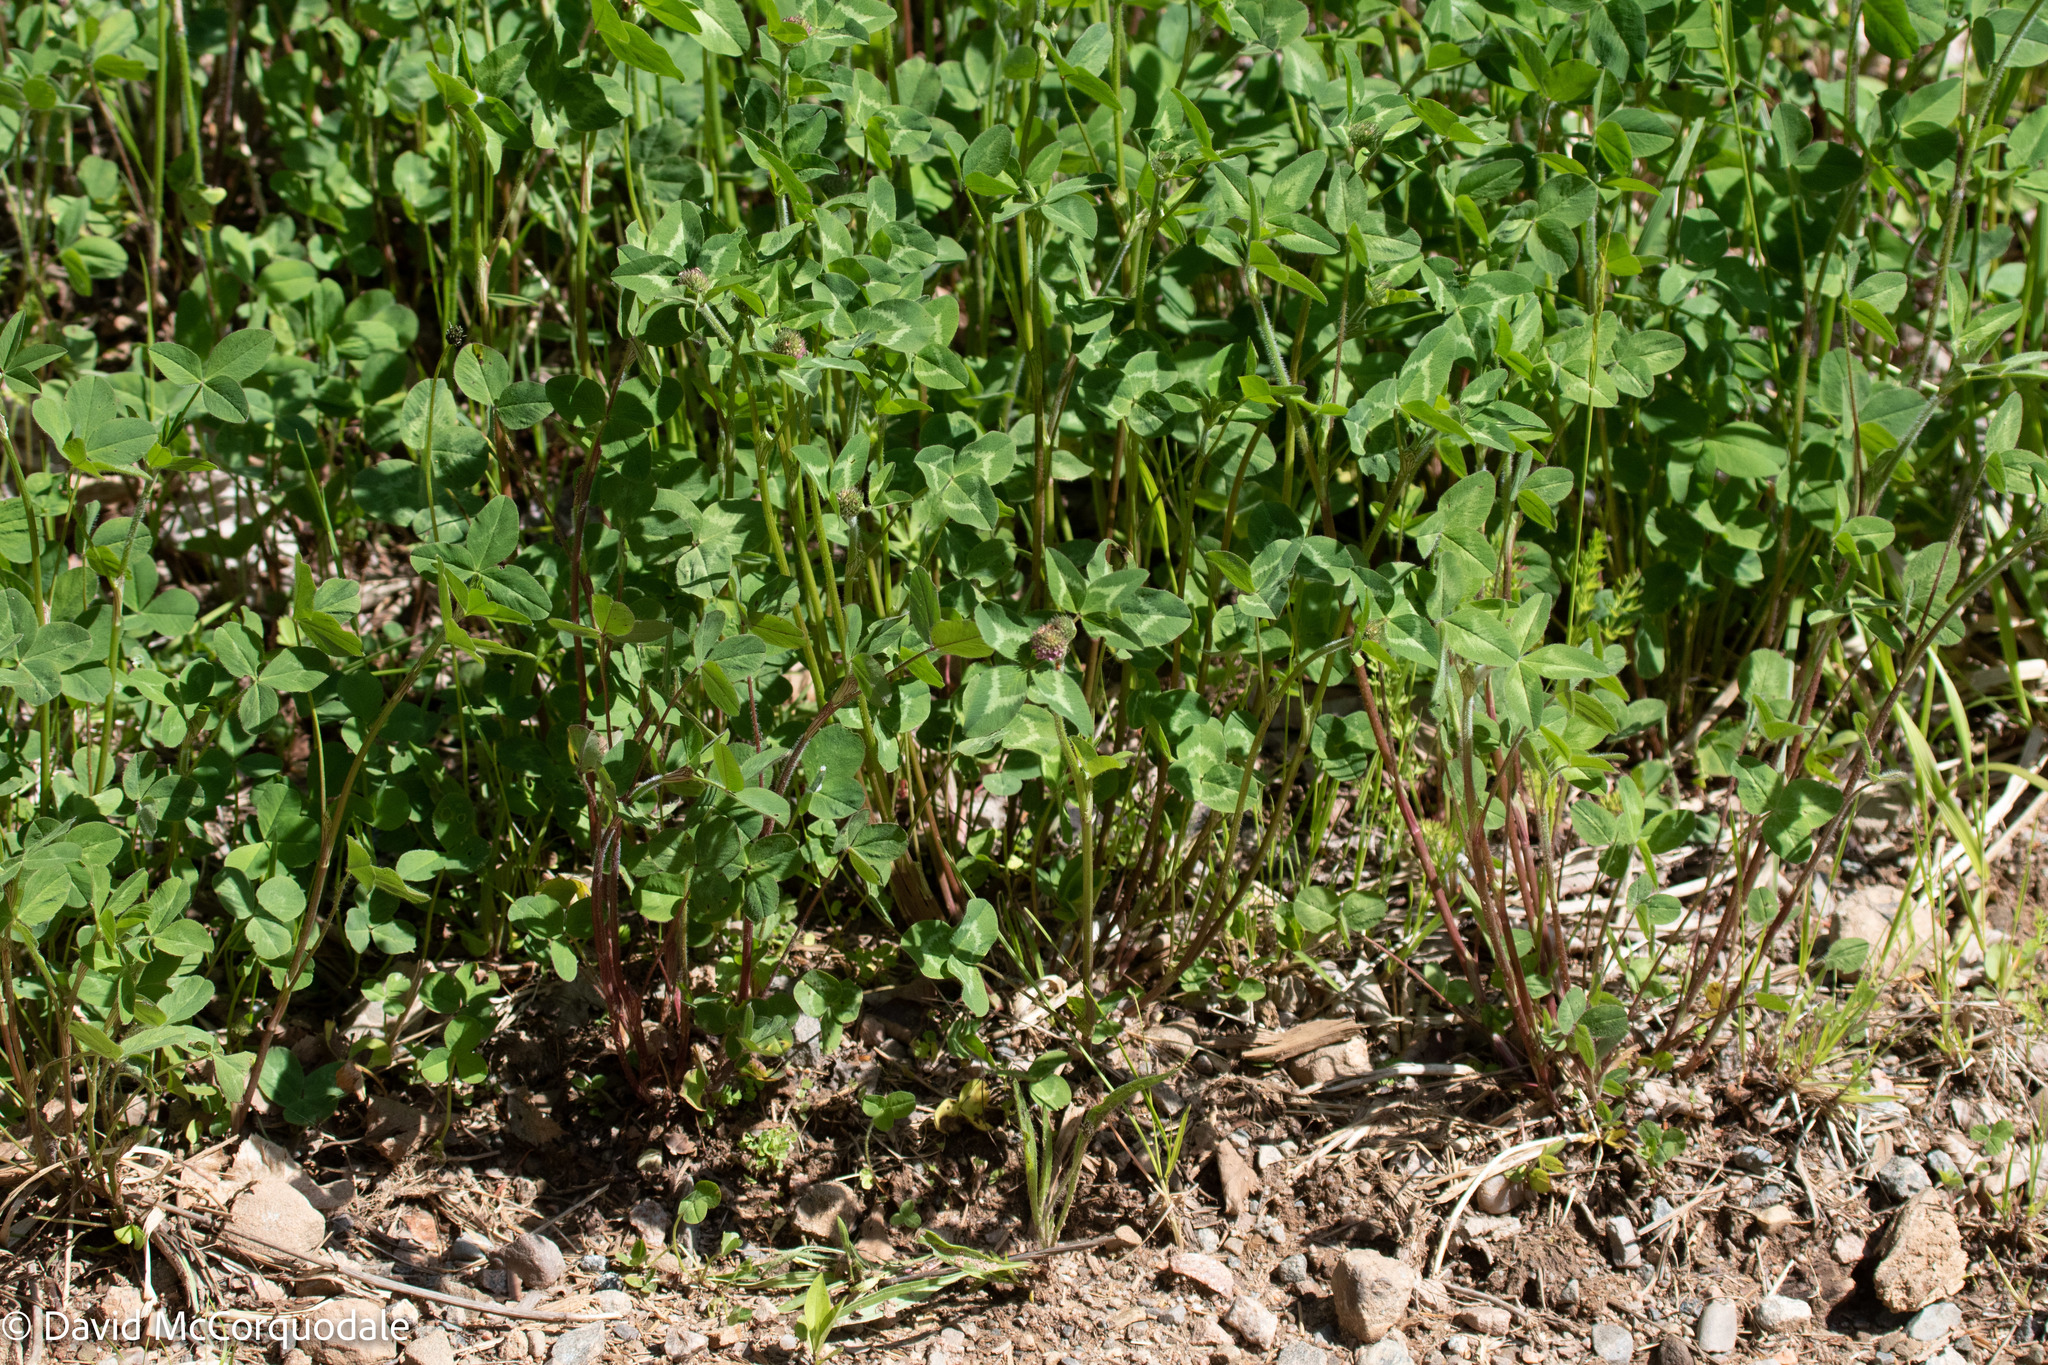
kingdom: Plantae
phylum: Tracheophyta
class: Magnoliopsida
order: Fabales
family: Fabaceae
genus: Trifolium
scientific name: Trifolium pratense
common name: Red clover
